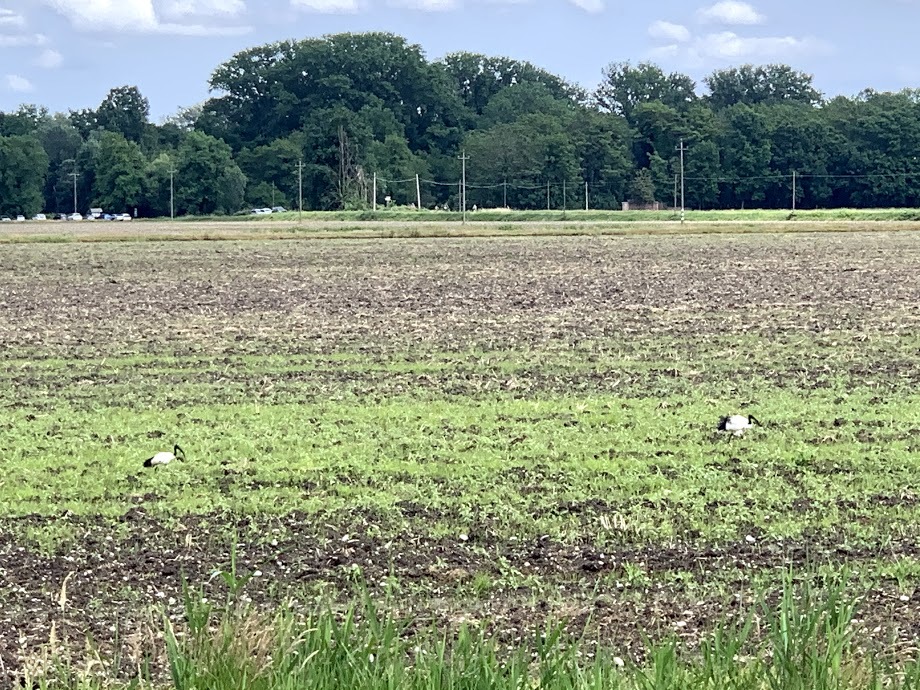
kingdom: Animalia
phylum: Chordata
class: Aves
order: Pelecaniformes
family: Threskiornithidae
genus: Threskiornis
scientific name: Threskiornis aethiopicus
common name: Sacred ibis
